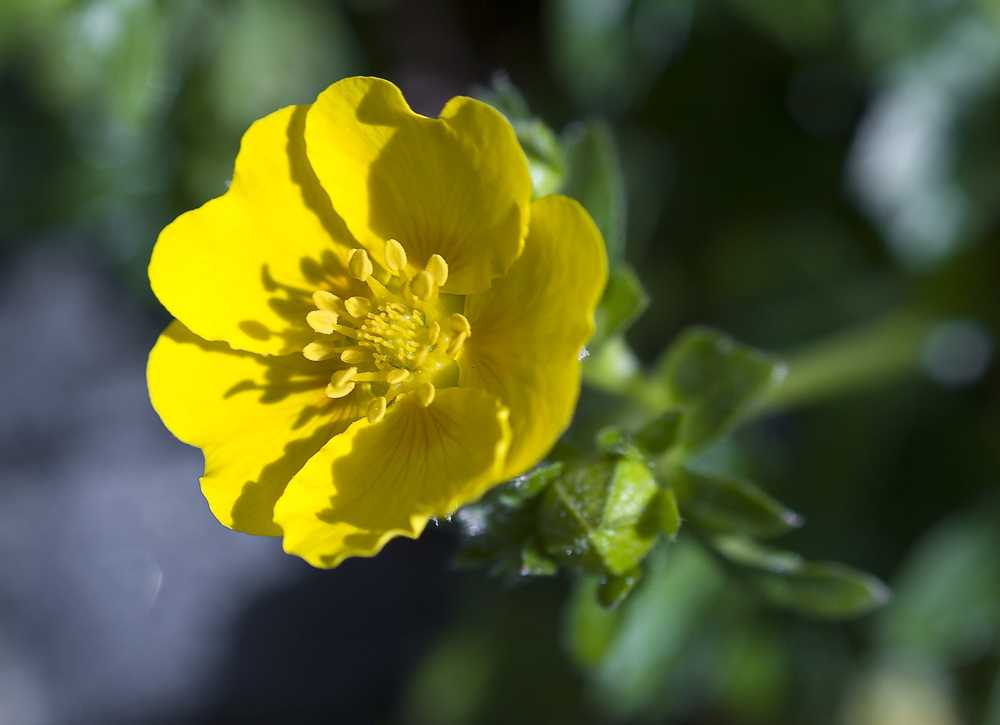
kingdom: Plantae
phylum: Tracheophyta
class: Magnoliopsida
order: Rosales
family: Rosaceae
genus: Potentilla
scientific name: Potentilla aurea
